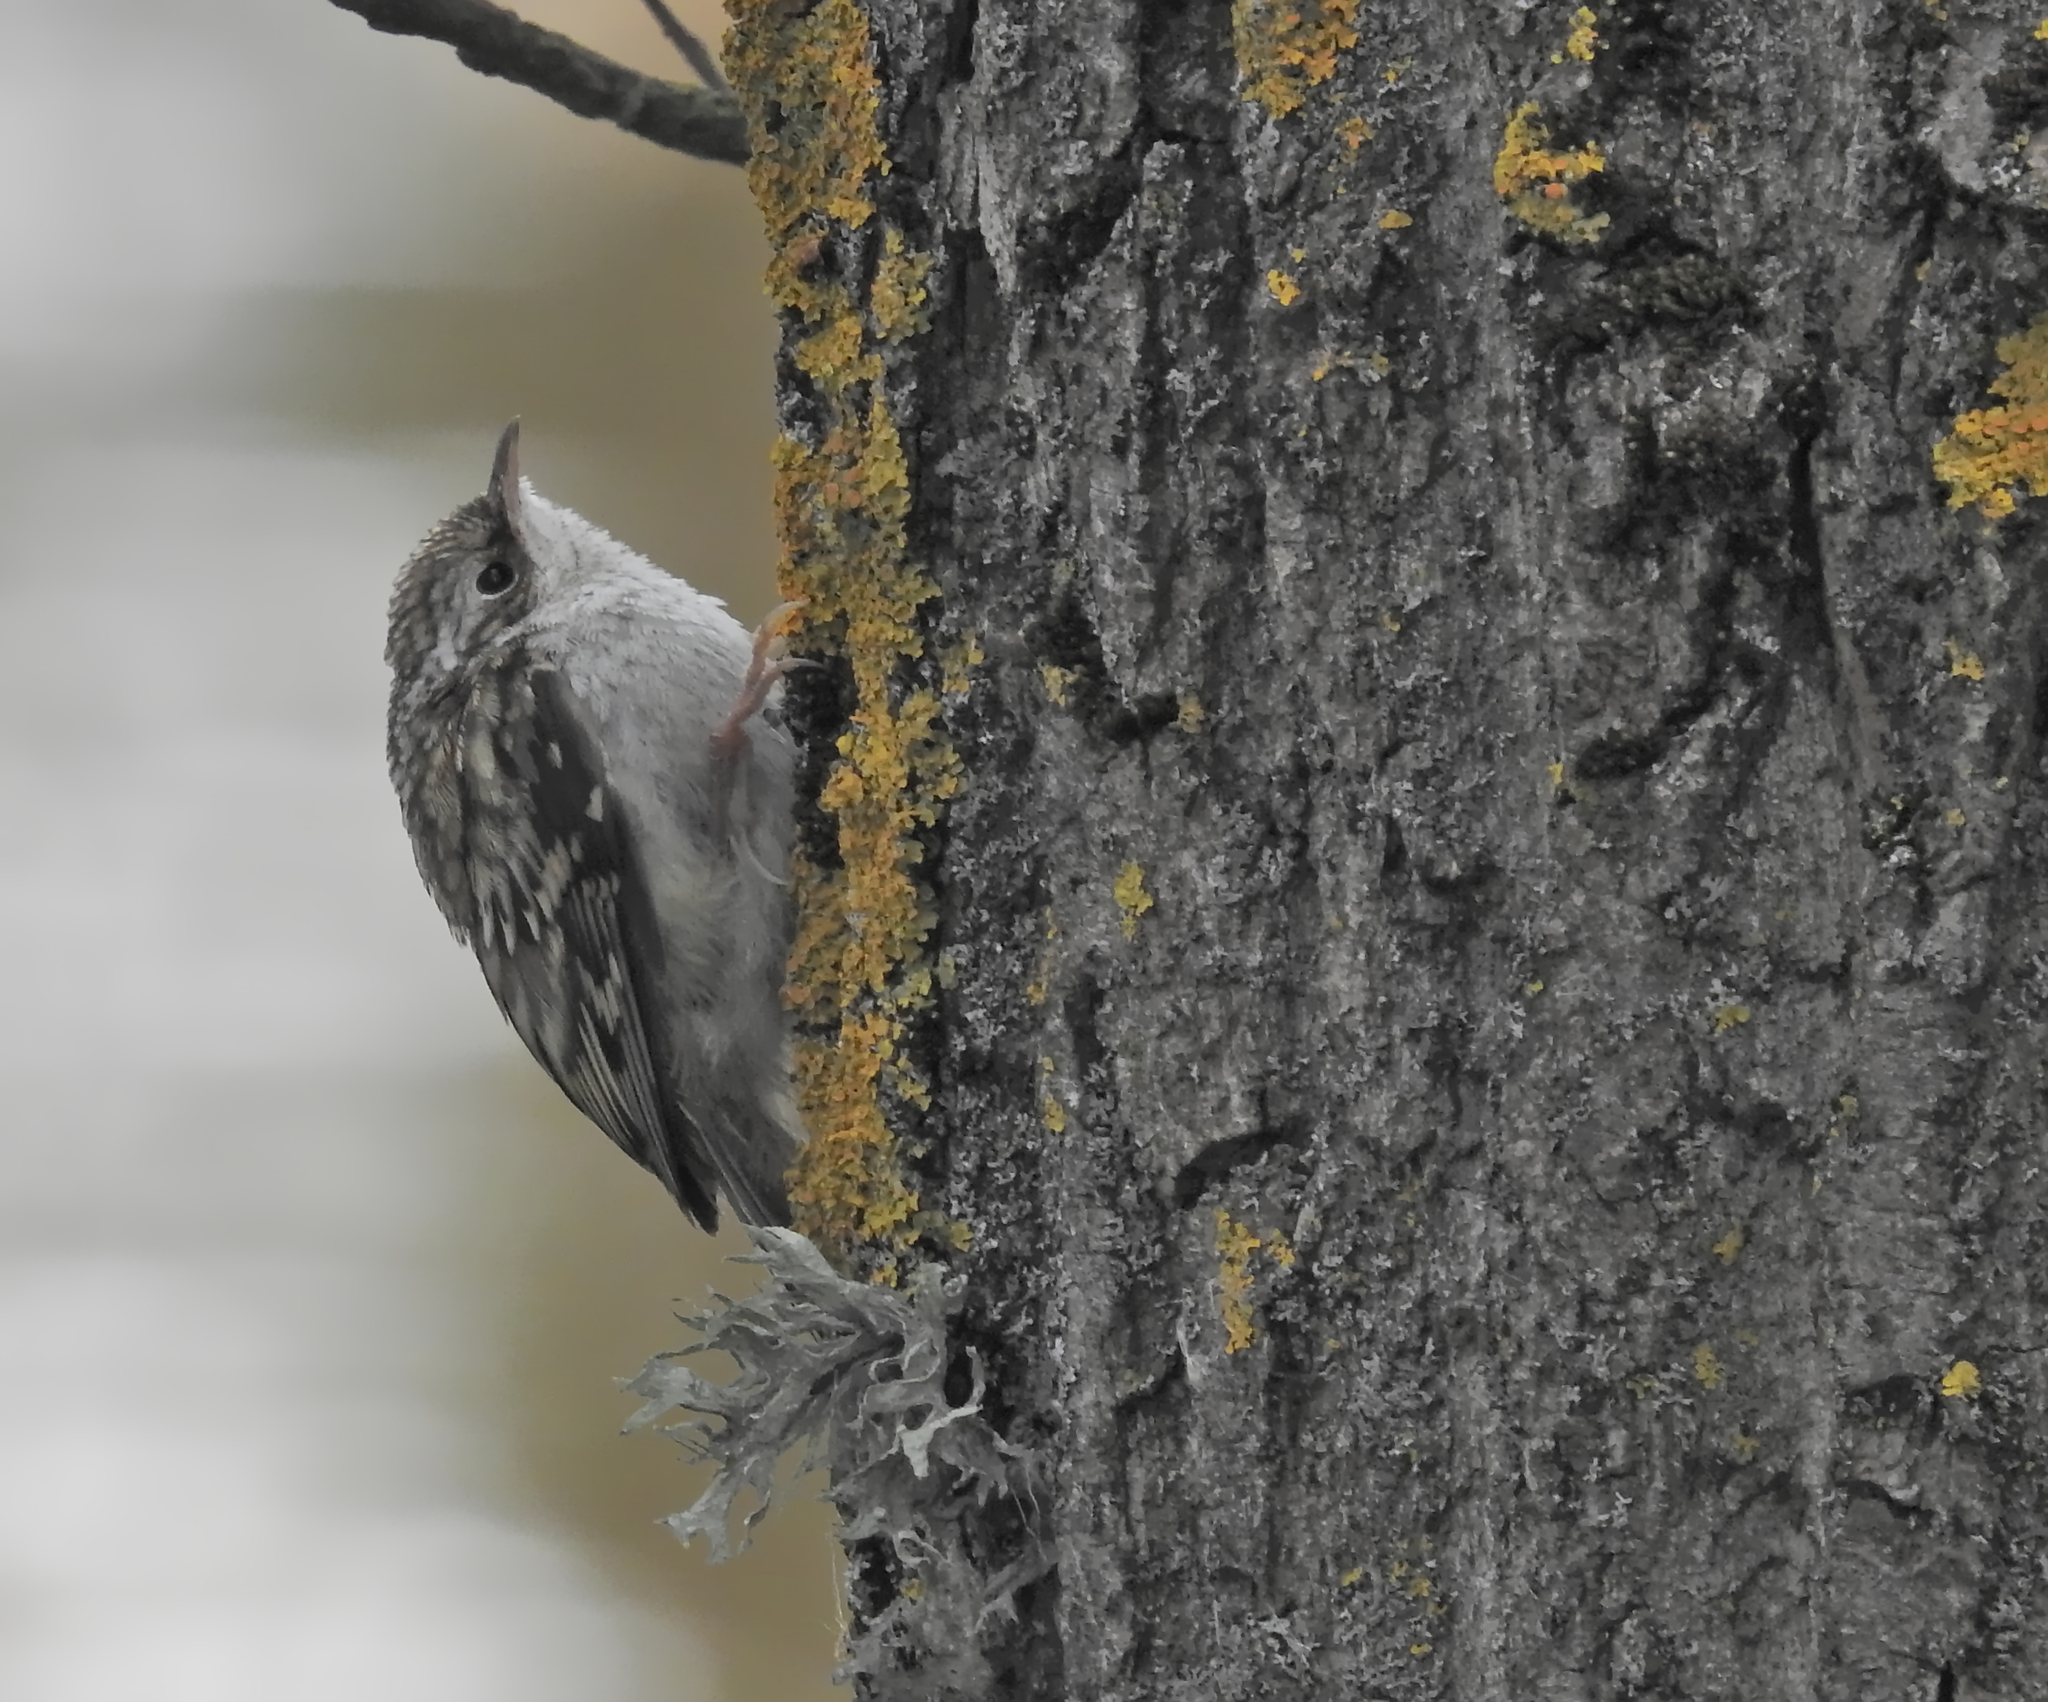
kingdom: Animalia
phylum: Chordata
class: Aves
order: Passeriformes
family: Certhiidae
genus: Certhia
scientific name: Certhia familiaris
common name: Eurasian treecreeper
